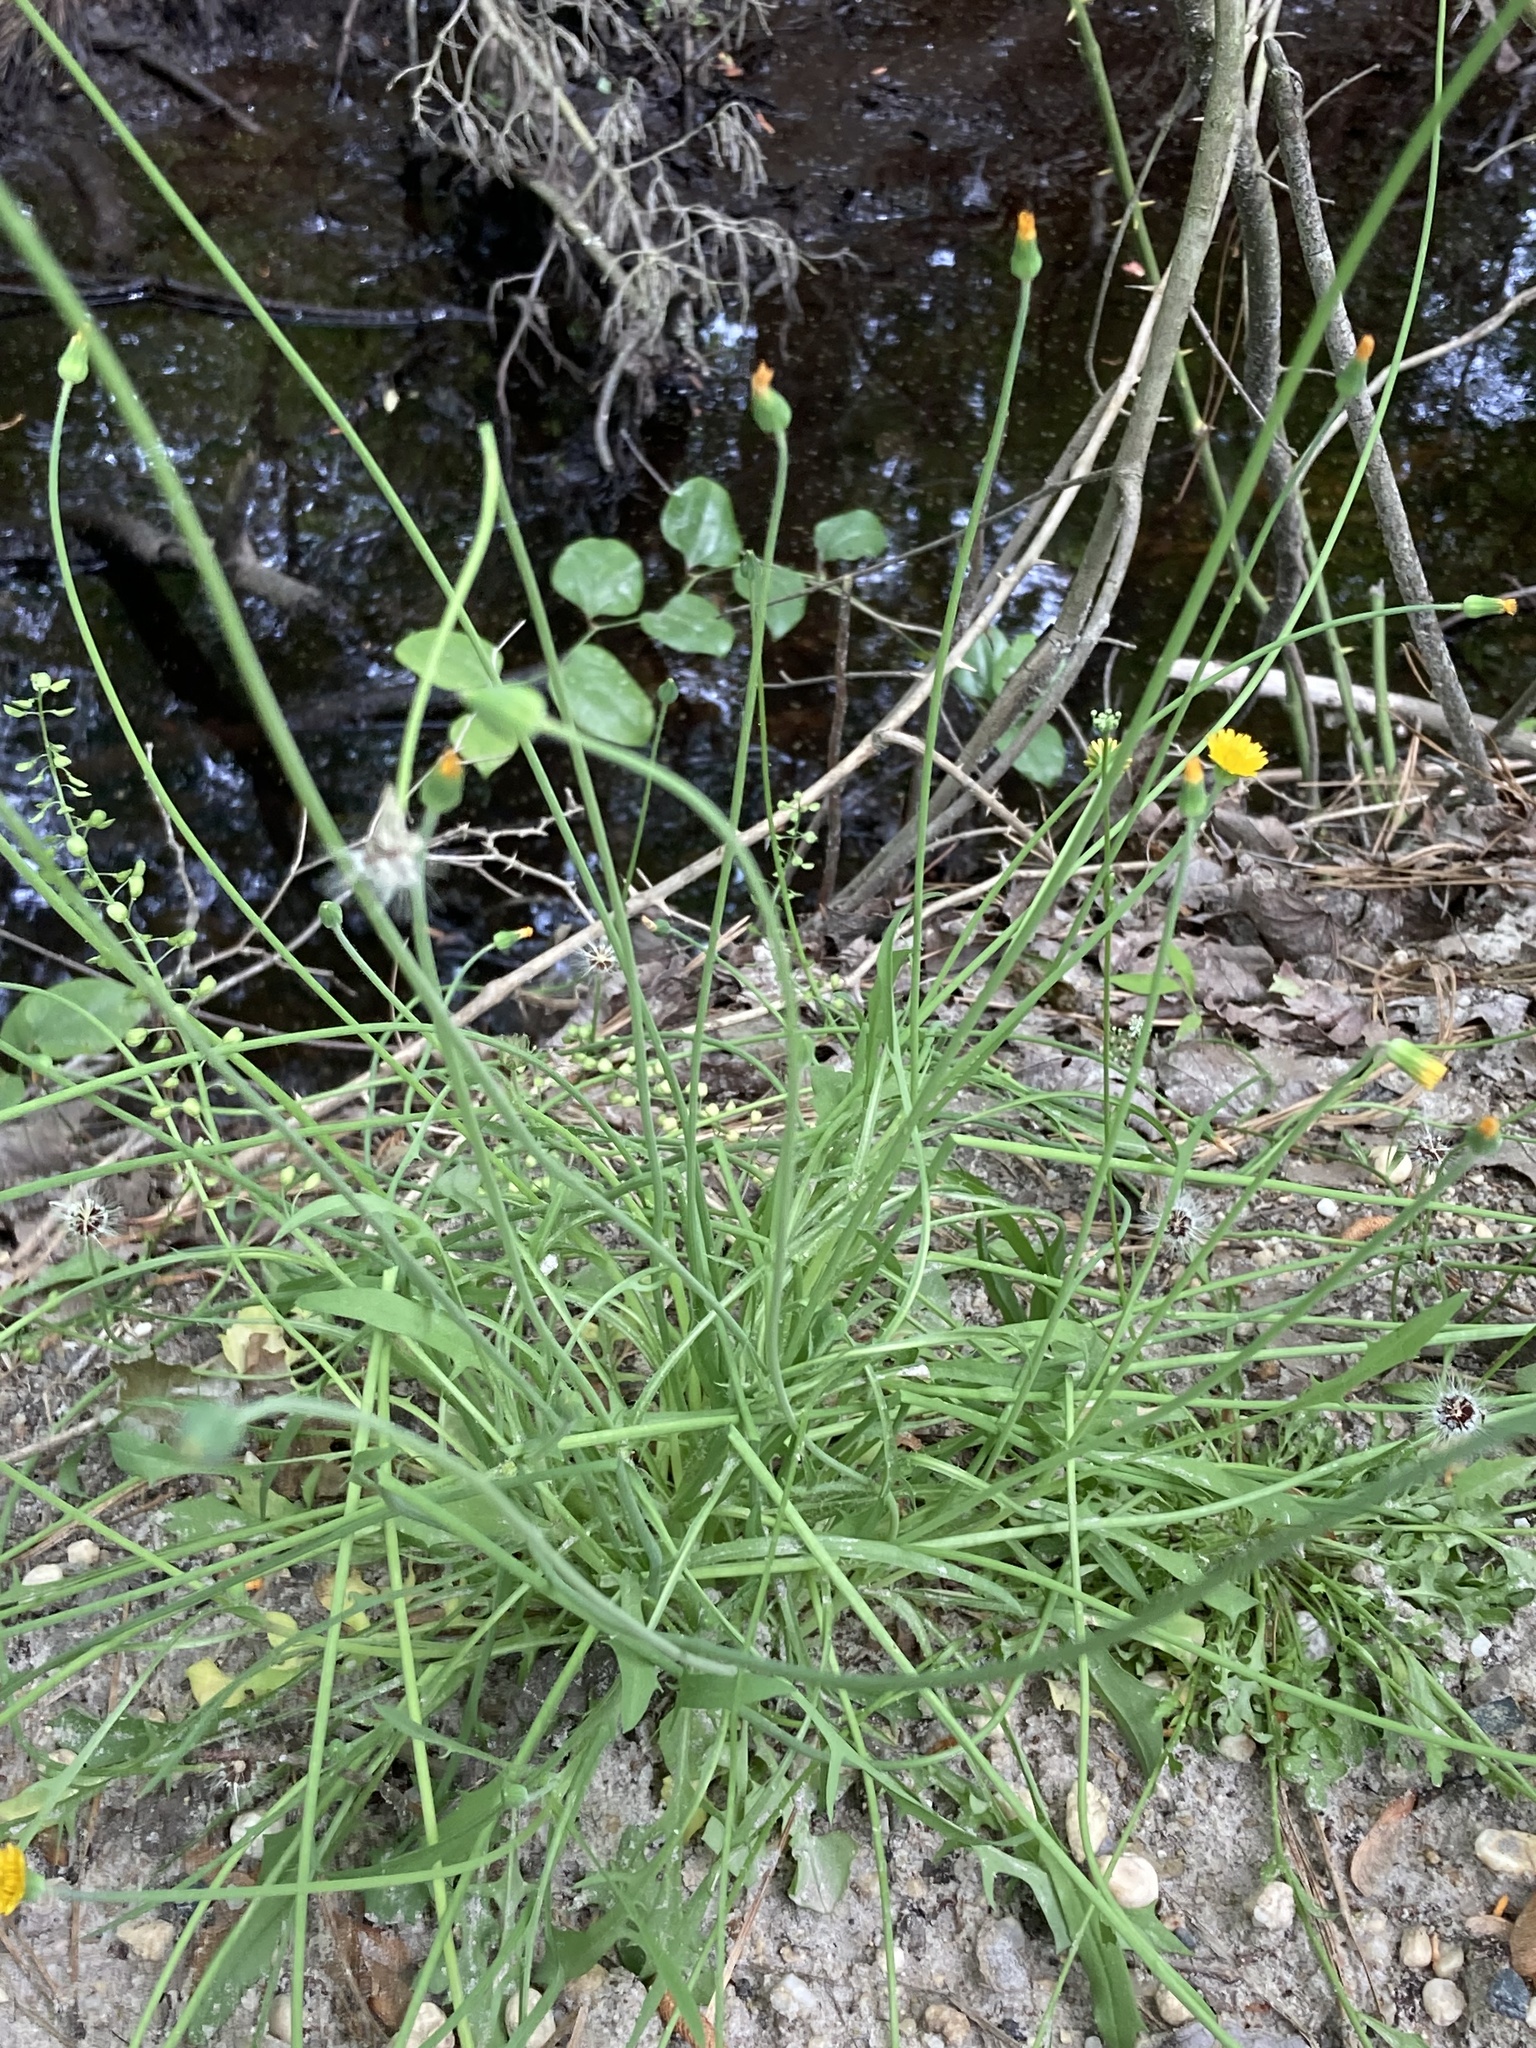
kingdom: Plantae
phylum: Tracheophyta
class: Magnoliopsida
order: Asterales
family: Asteraceae
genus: Krigia
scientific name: Krigia virginica
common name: Virginia dwarf-dandelion
